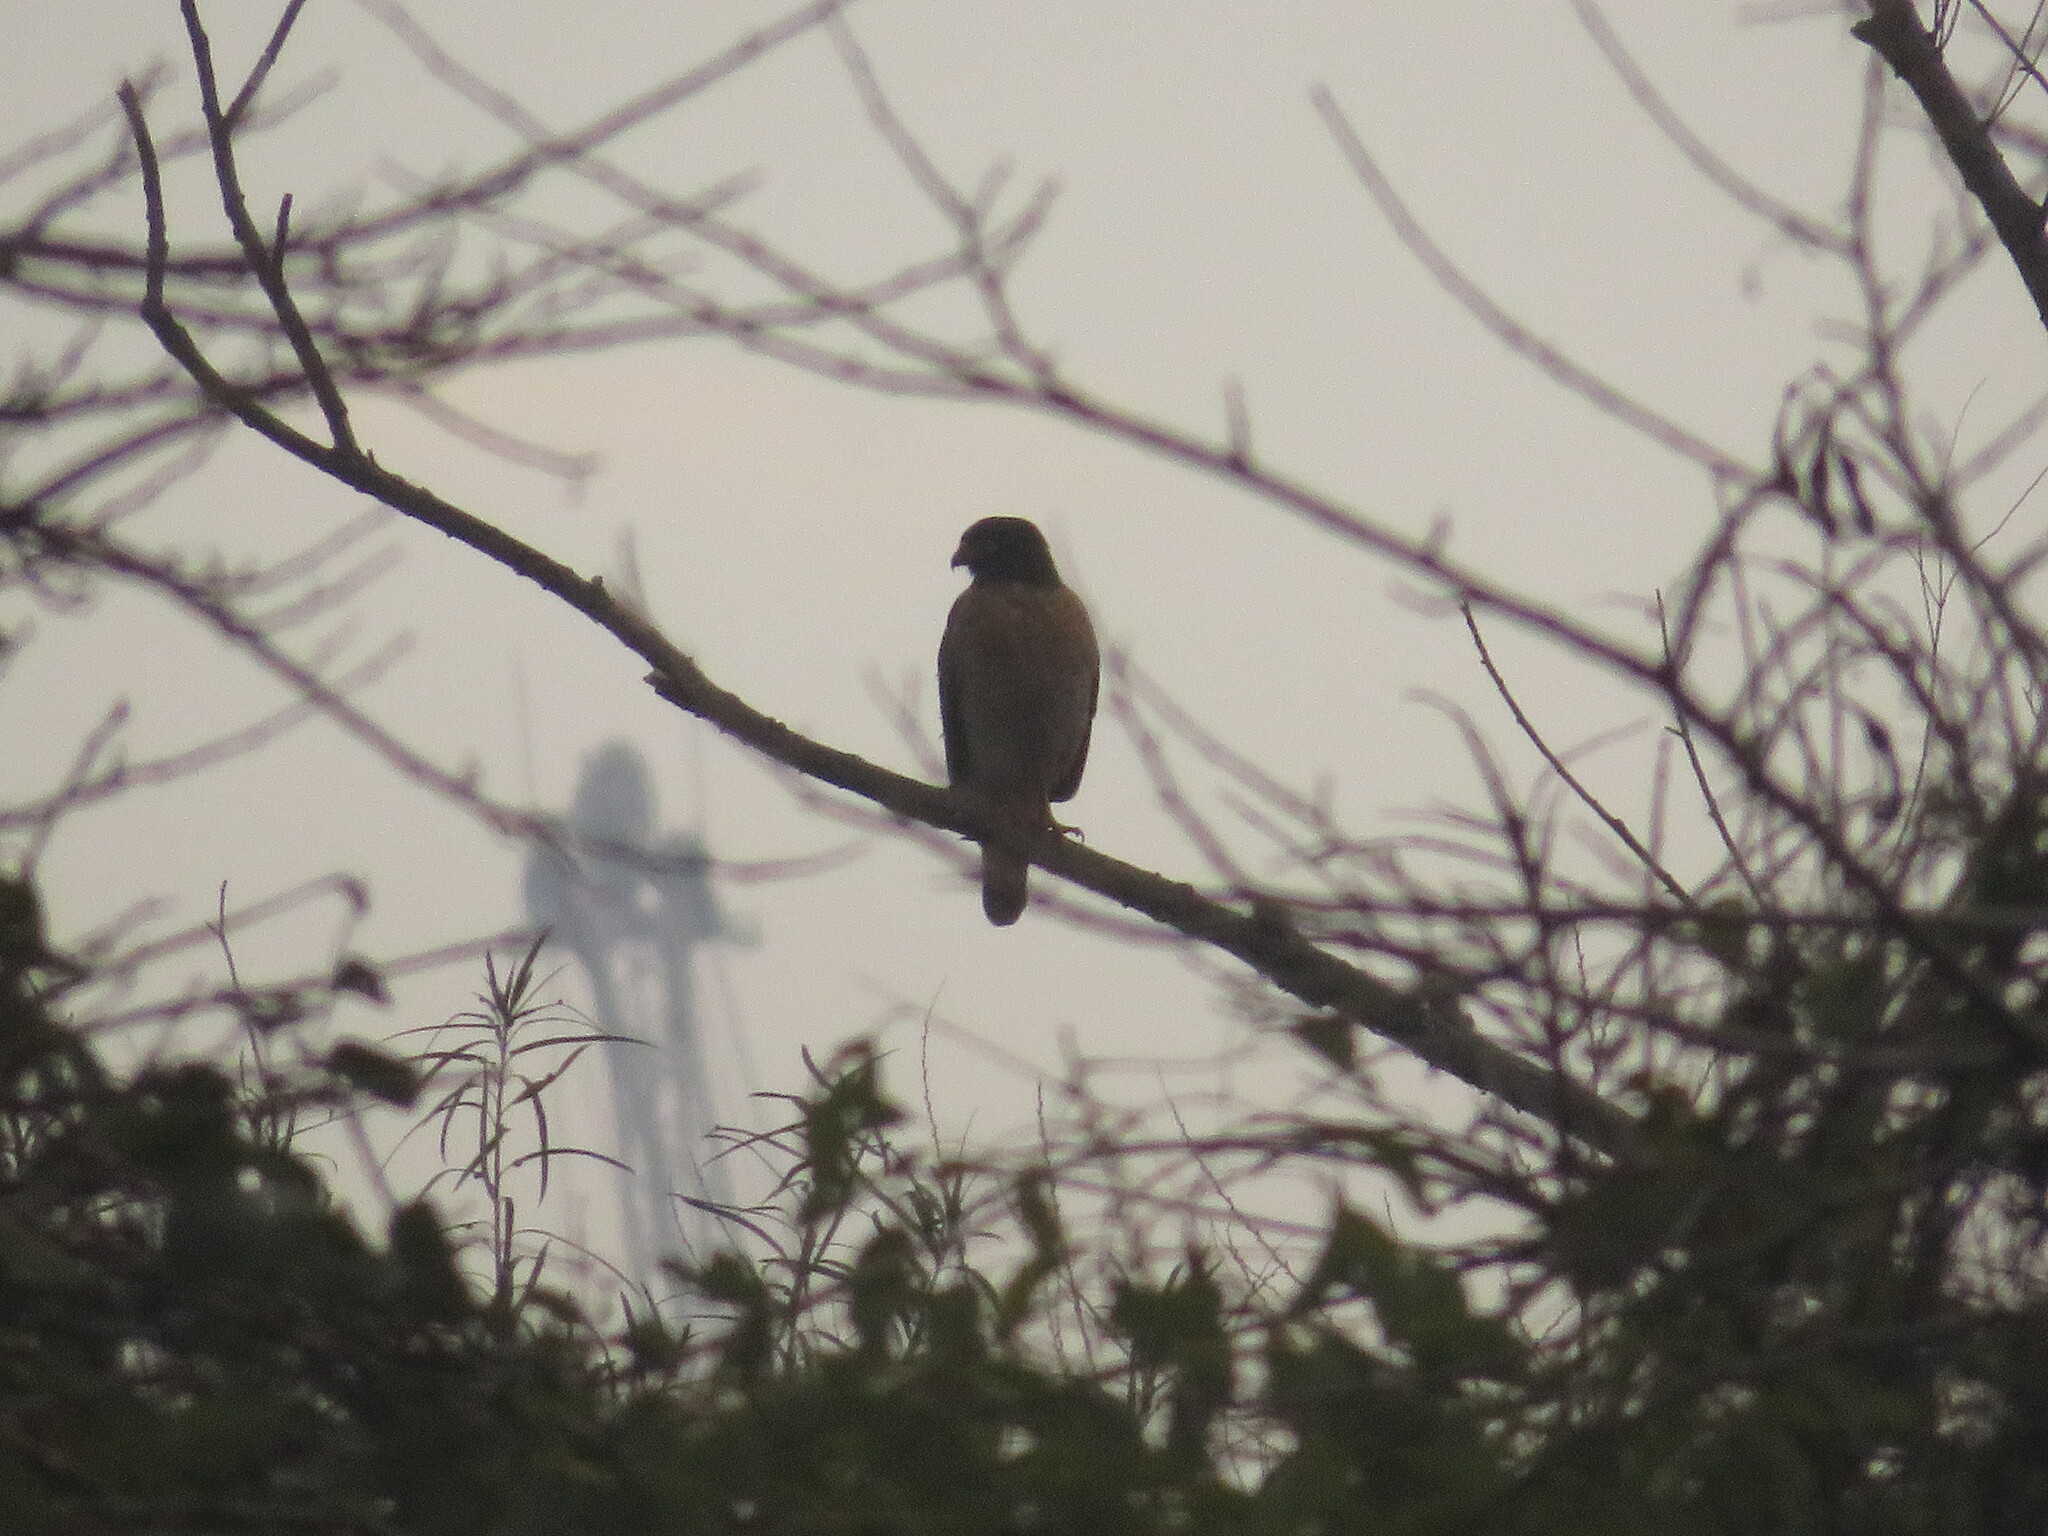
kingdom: Animalia
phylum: Chordata
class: Aves
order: Accipitriformes
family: Accipitridae
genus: Rupornis
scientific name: Rupornis magnirostris
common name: Roadside hawk
